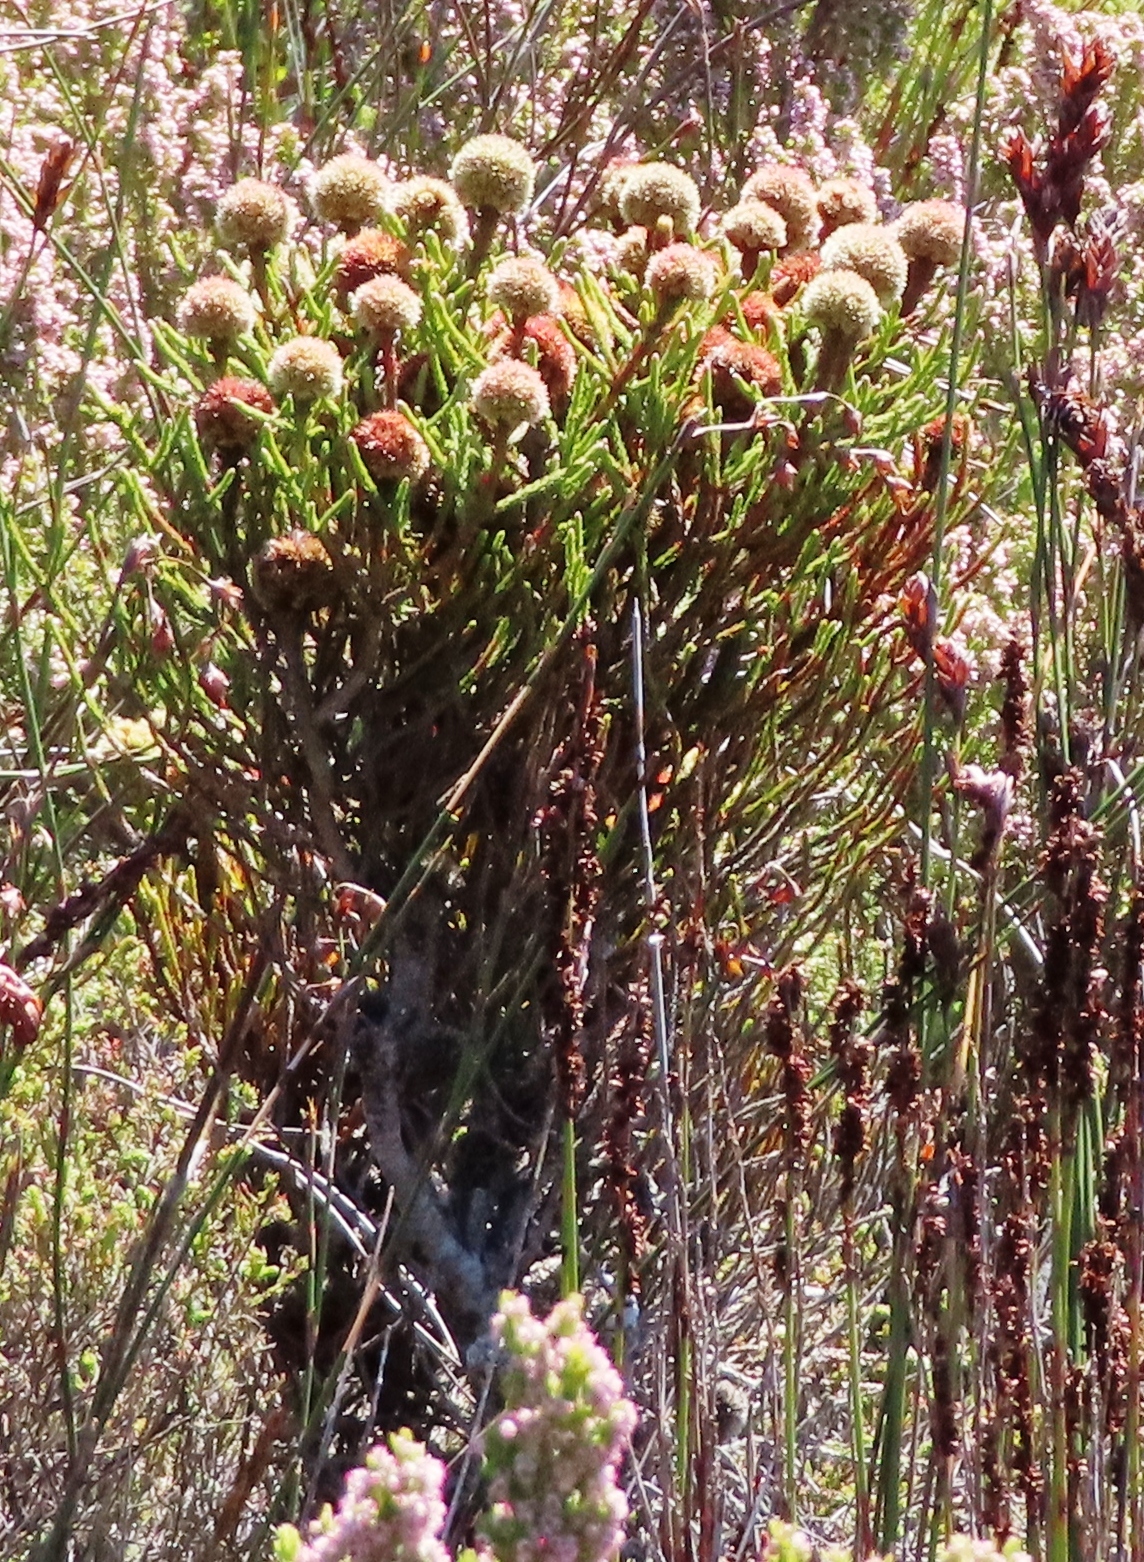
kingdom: Plantae
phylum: Tracheophyta
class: Magnoliopsida
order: Bruniales
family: Bruniaceae
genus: Brunia
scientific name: Brunia fragarioides
